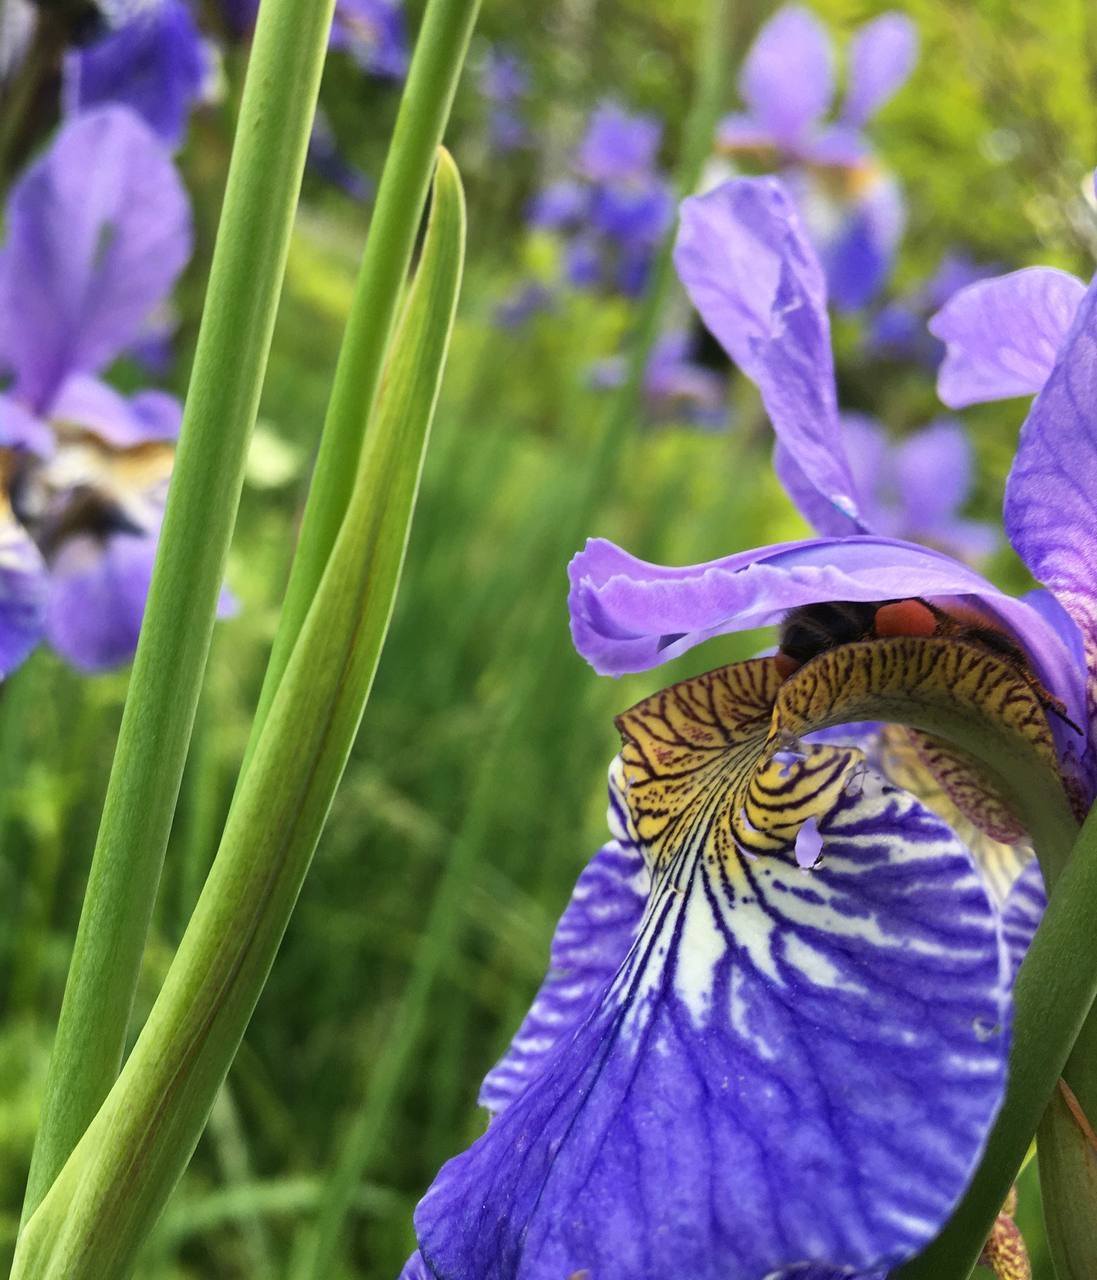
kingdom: Animalia
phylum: Arthropoda
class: Insecta
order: Hymenoptera
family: Apidae
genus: Bombus
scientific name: Bombus schrencki
